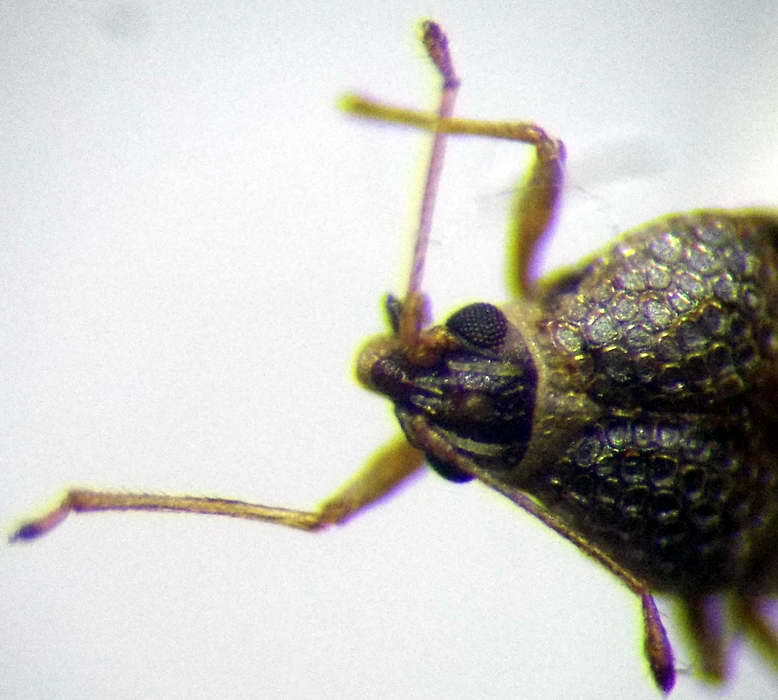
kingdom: Animalia
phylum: Arthropoda
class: Insecta
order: Hemiptera
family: Tingidae
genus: Dictyla
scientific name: Dictyla montandoni
